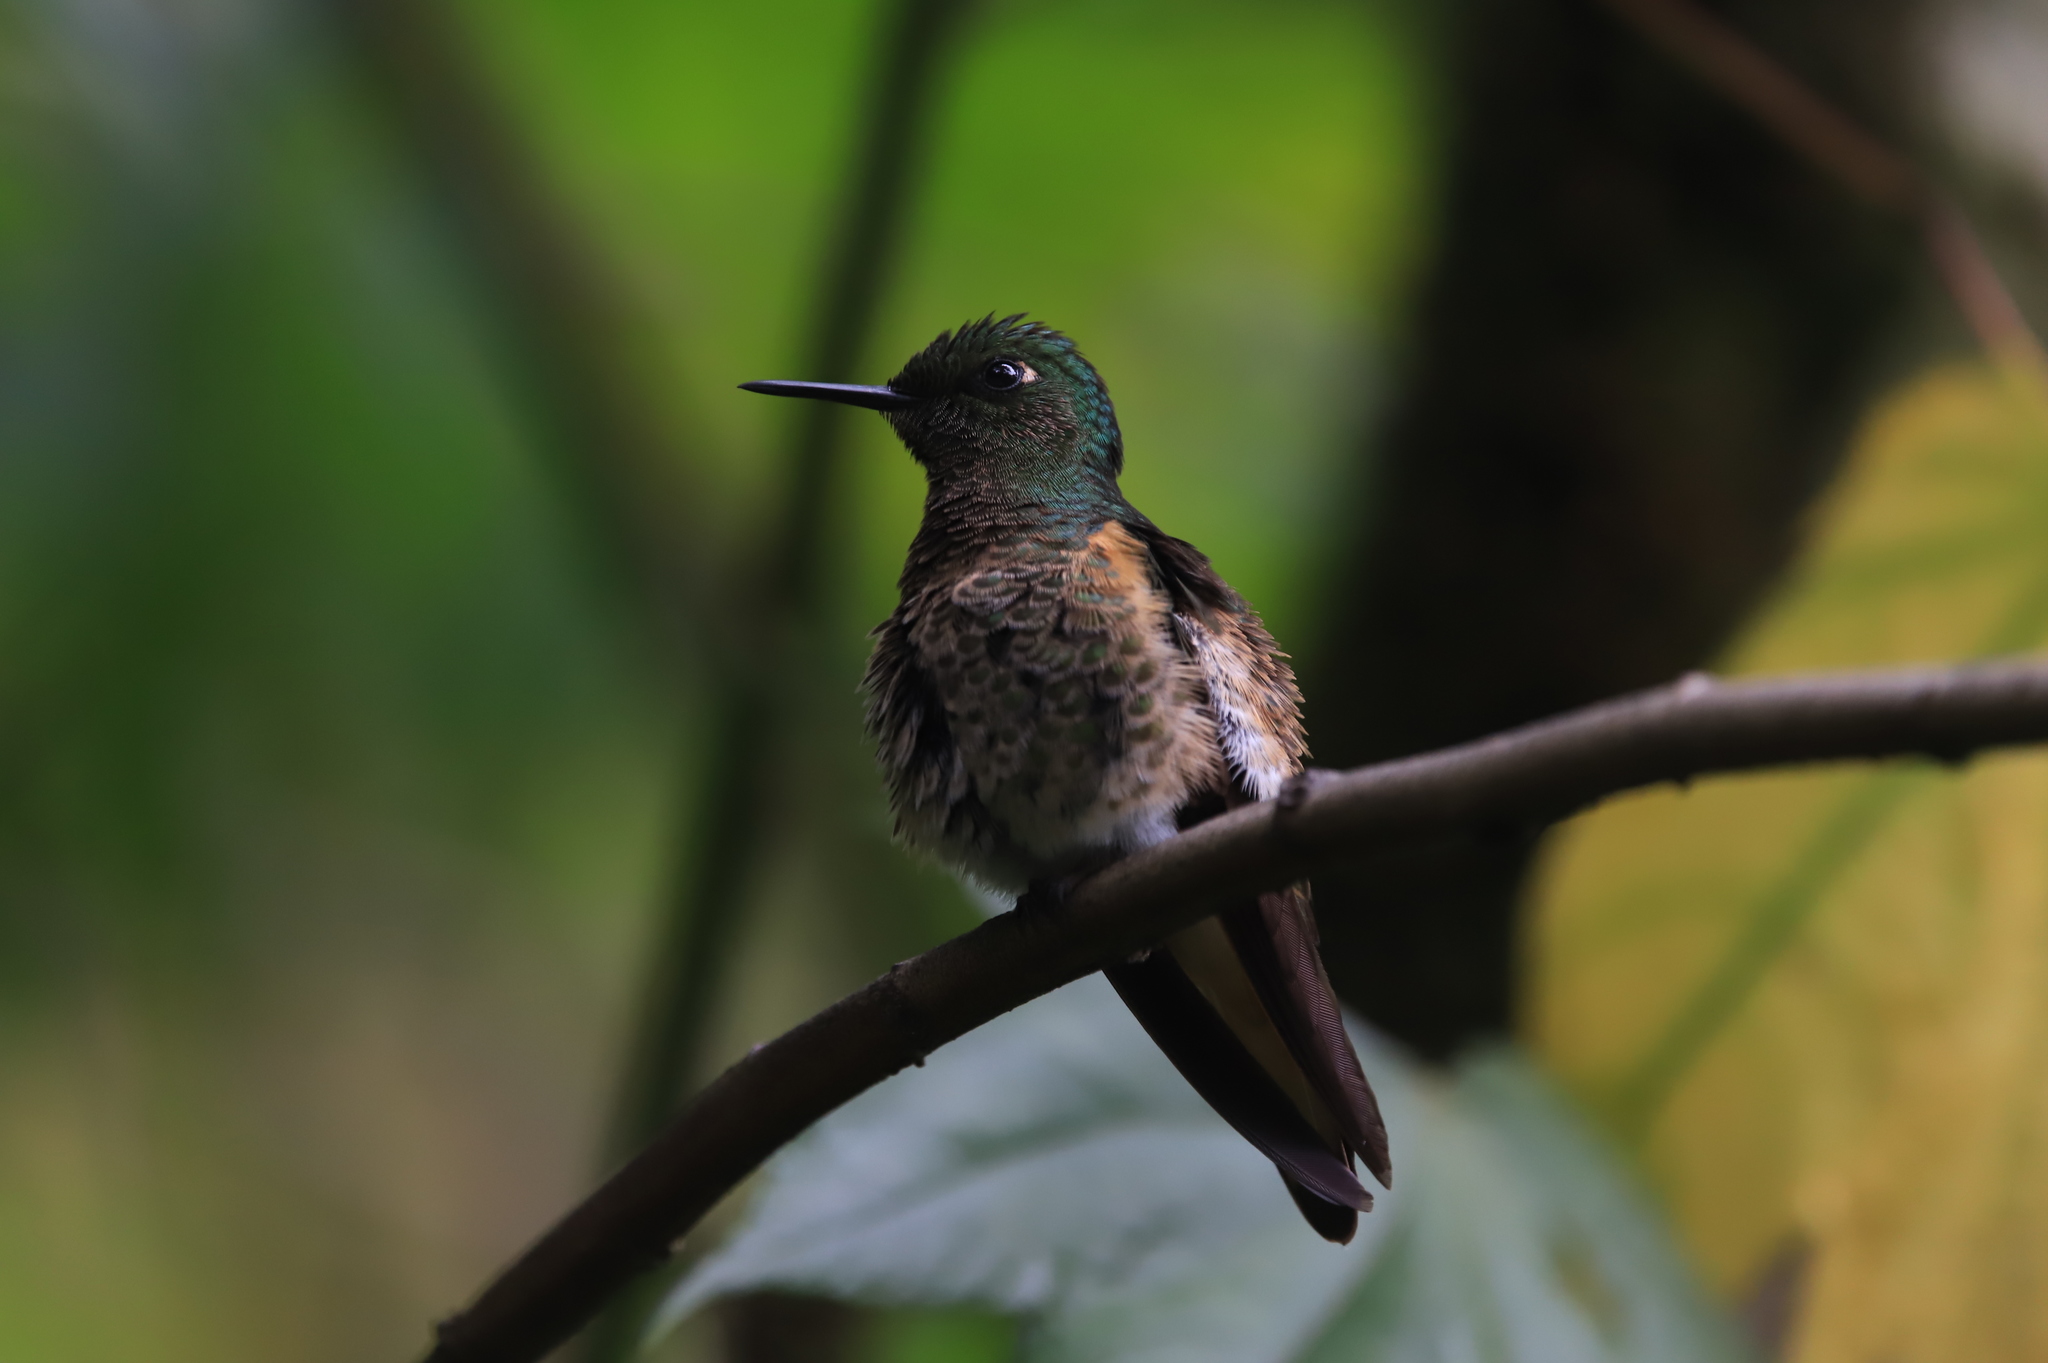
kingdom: Animalia
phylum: Chordata
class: Aves
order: Apodiformes
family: Trochilidae
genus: Boissonneaua
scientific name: Boissonneaua flavescens
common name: Buff-tailed coronet
